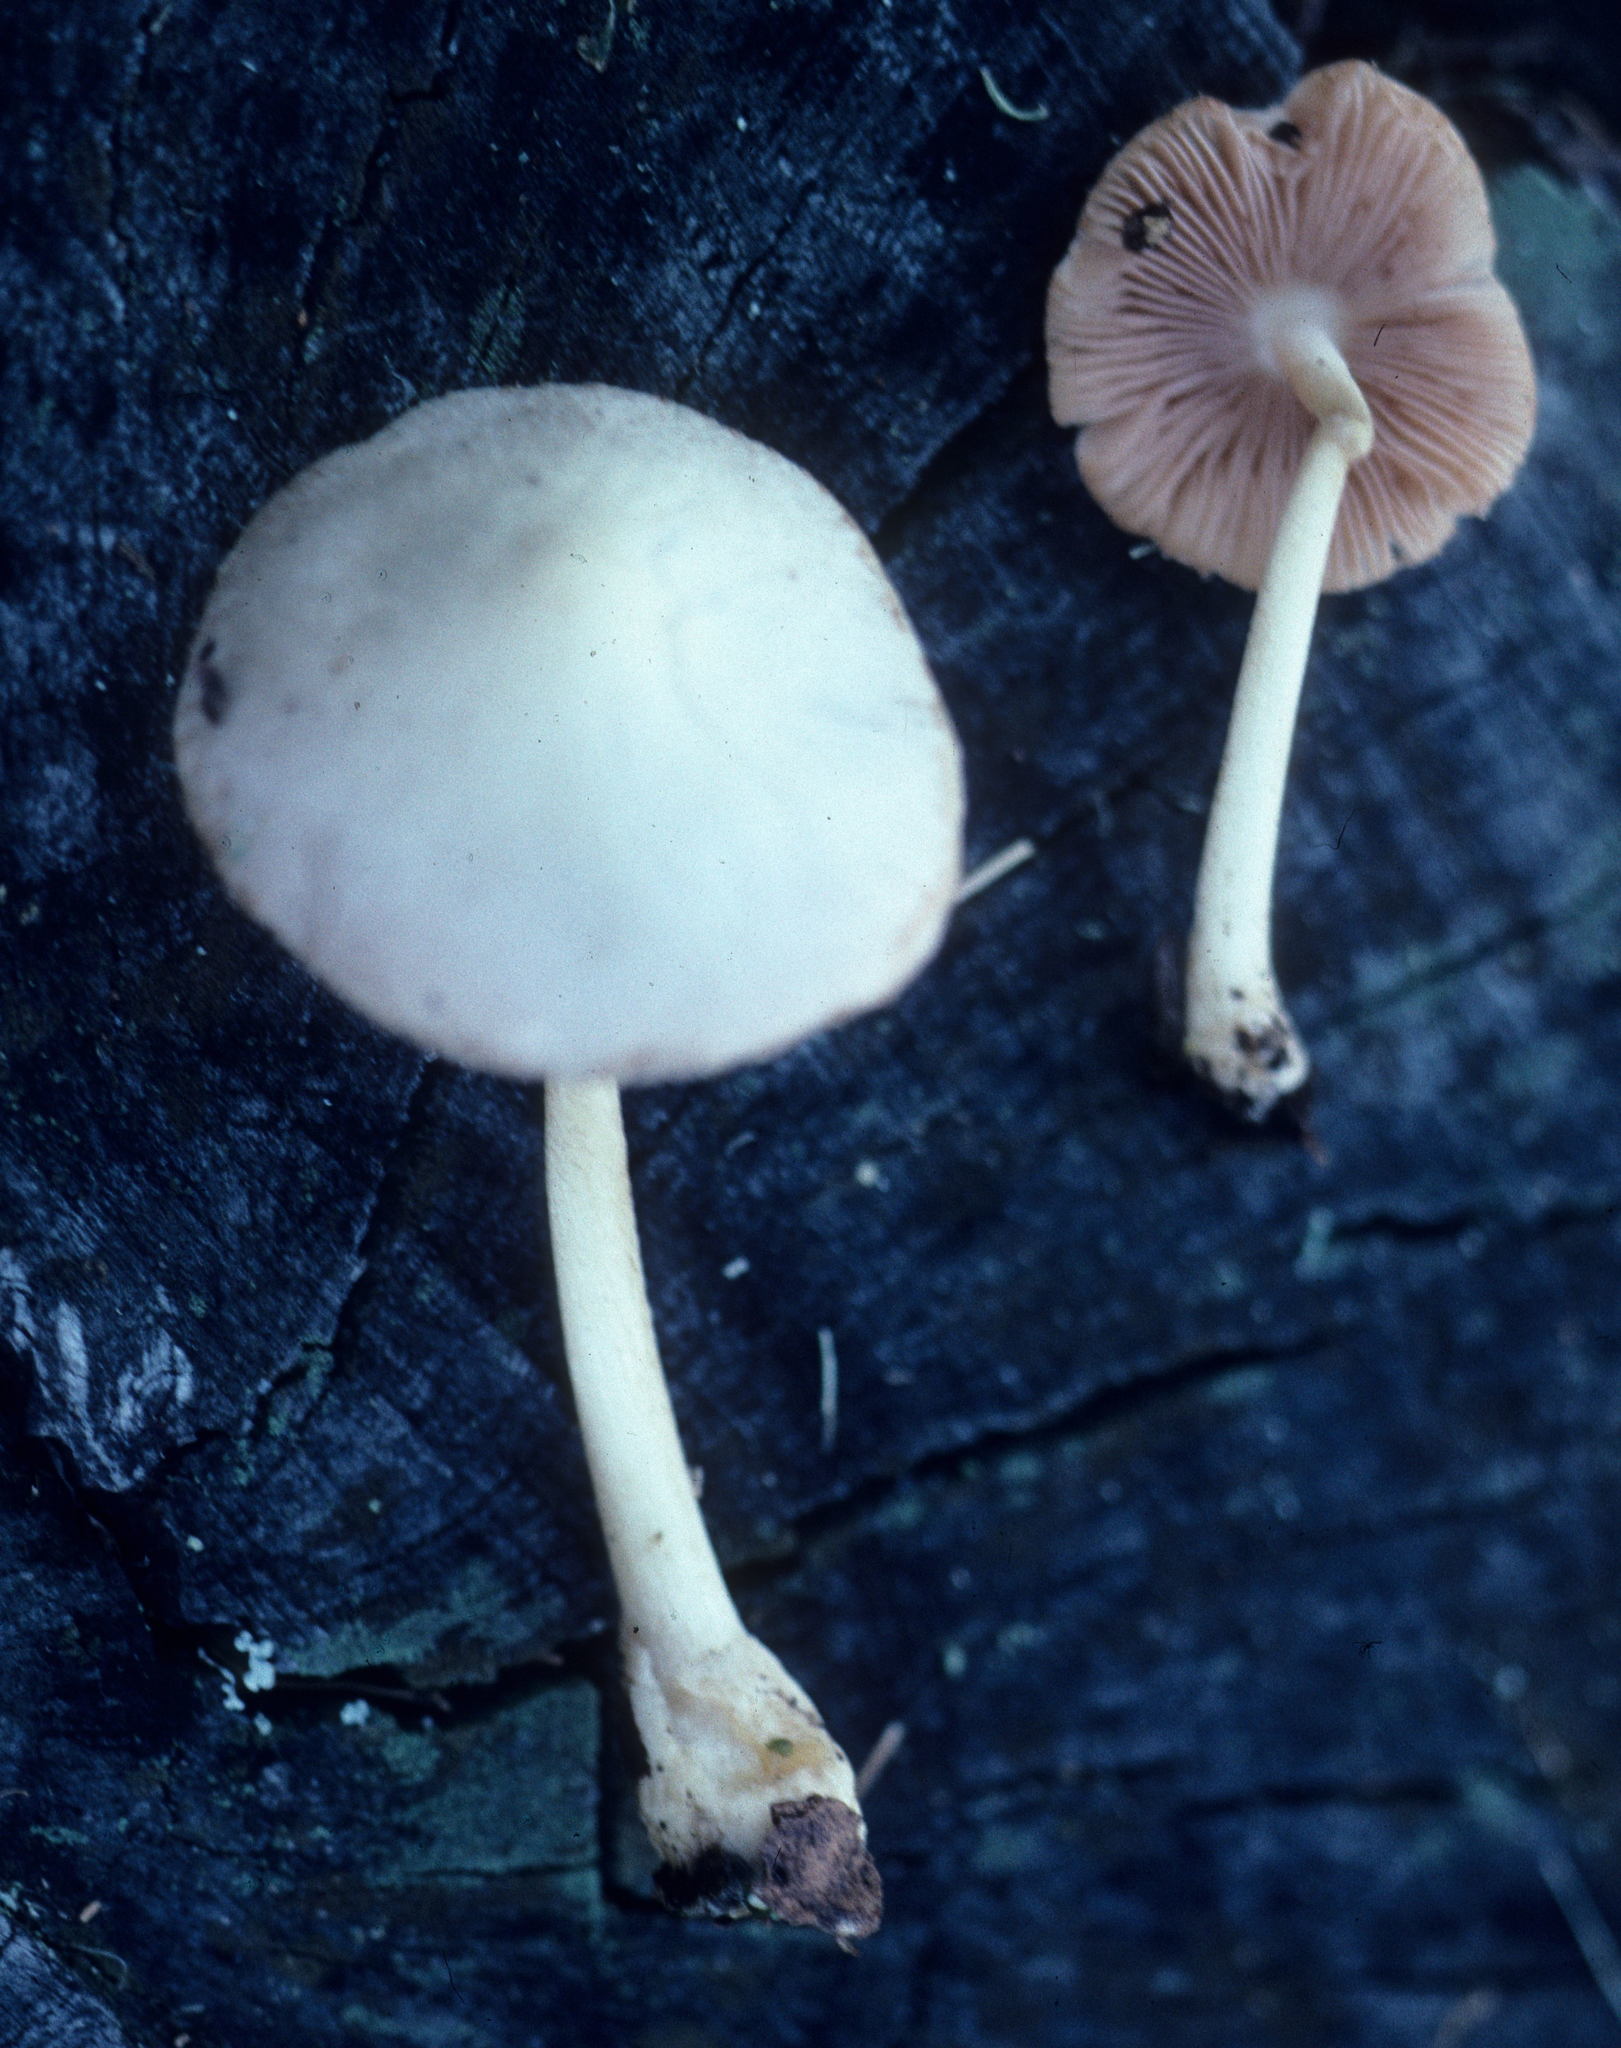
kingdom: Fungi
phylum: Basidiomycota
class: Agaricomycetes
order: Agaricales
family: Pluteaceae
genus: Volvariella
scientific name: Volvariella hypopithys
